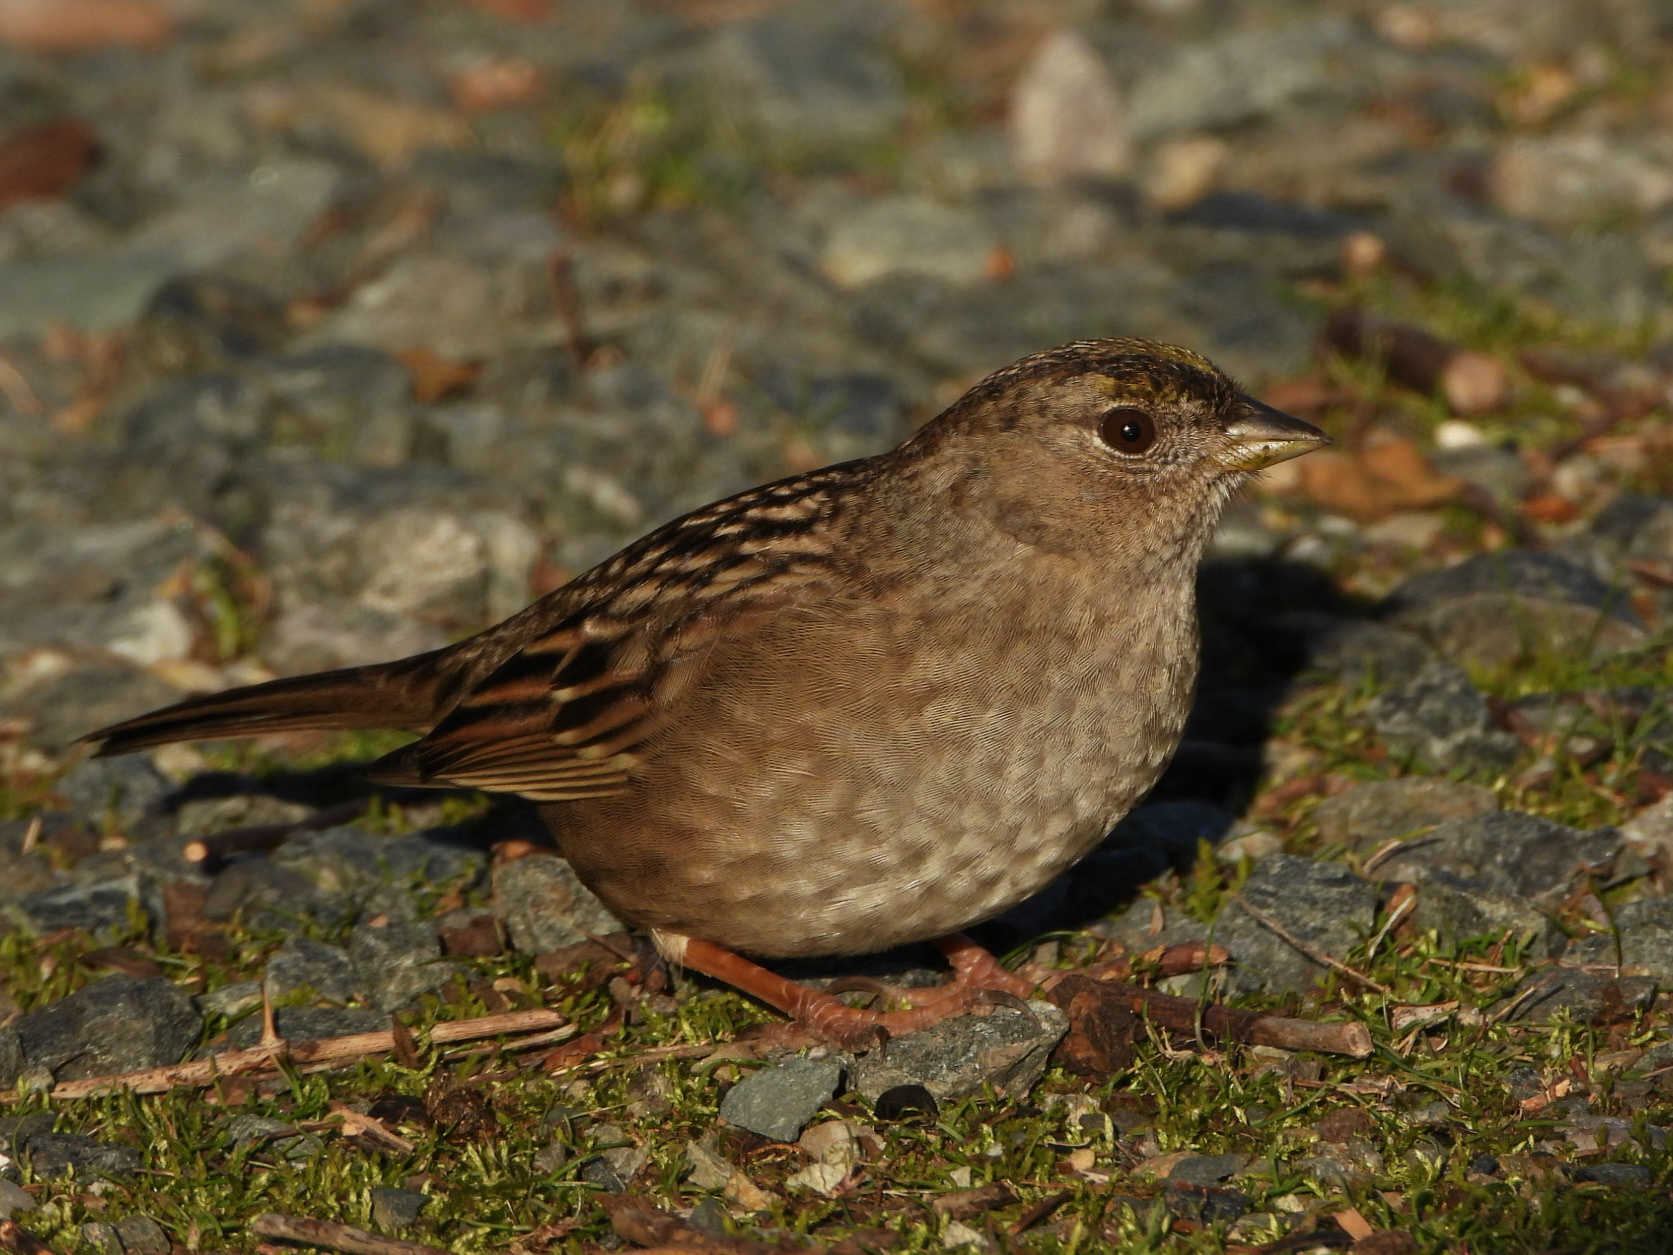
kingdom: Animalia
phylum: Chordata
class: Aves
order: Passeriformes
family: Passerellidae
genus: Zonotrichia
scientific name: Zonotrichia atricapilla
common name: Golden-crowned sparrow
